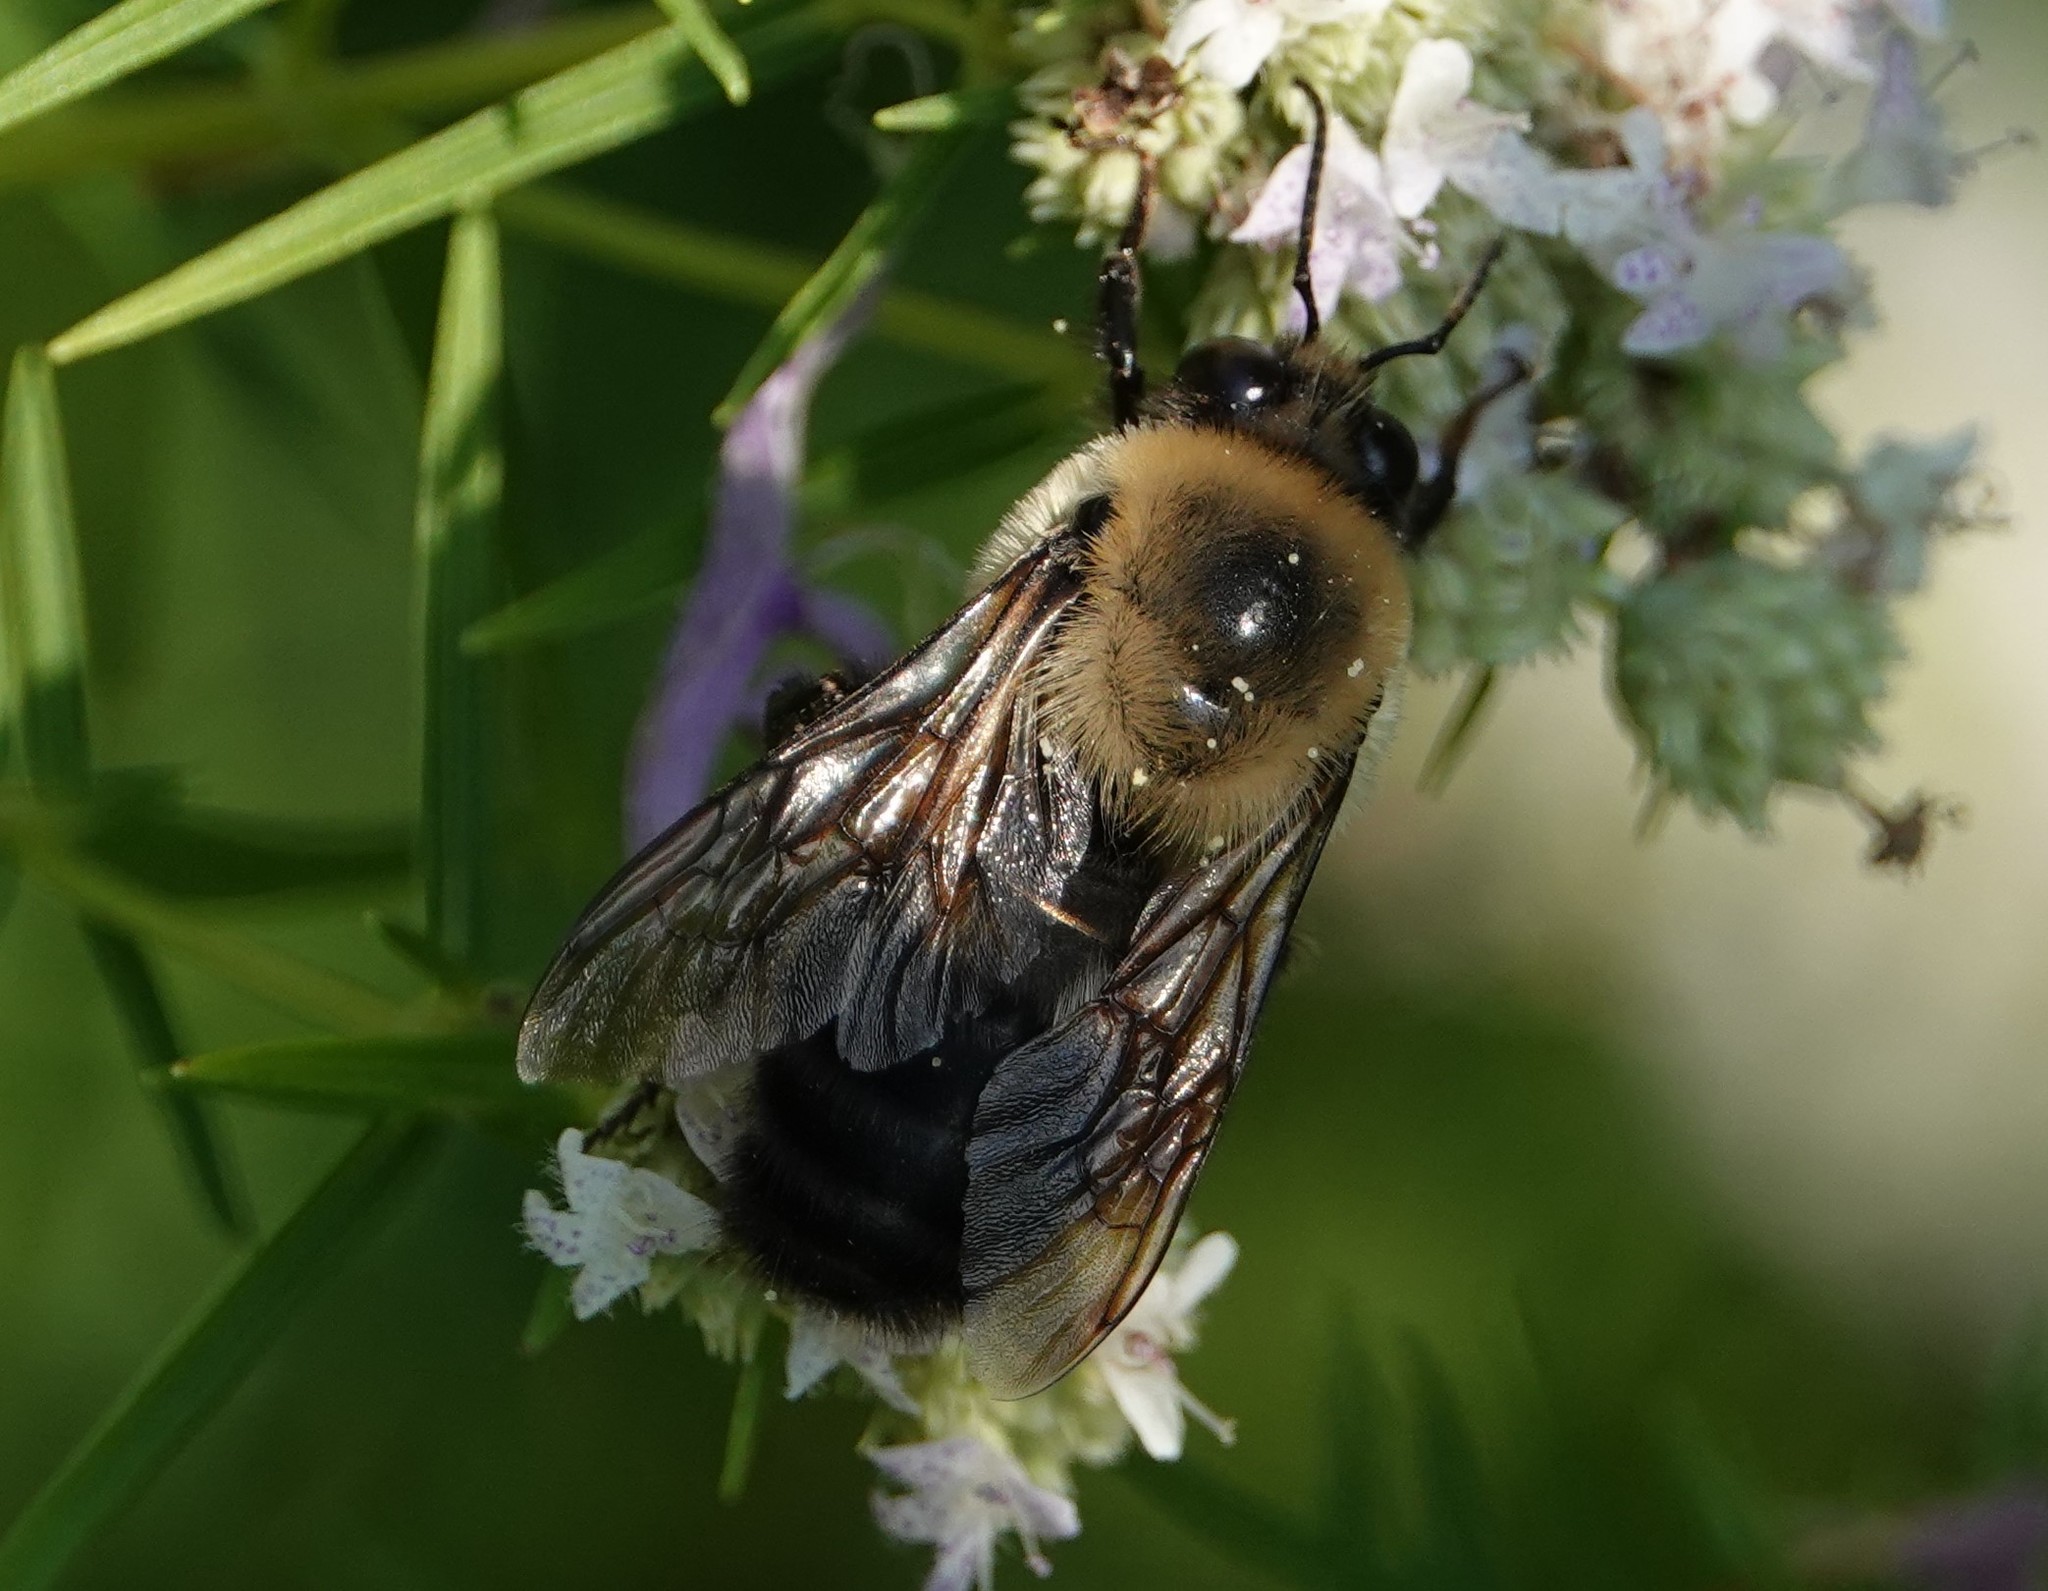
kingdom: Animalia
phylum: Arthropoda
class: Insecta
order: Hymenoptera
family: Apidae
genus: Xylocopa
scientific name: Xylocopa virginica
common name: Carpenter bee
